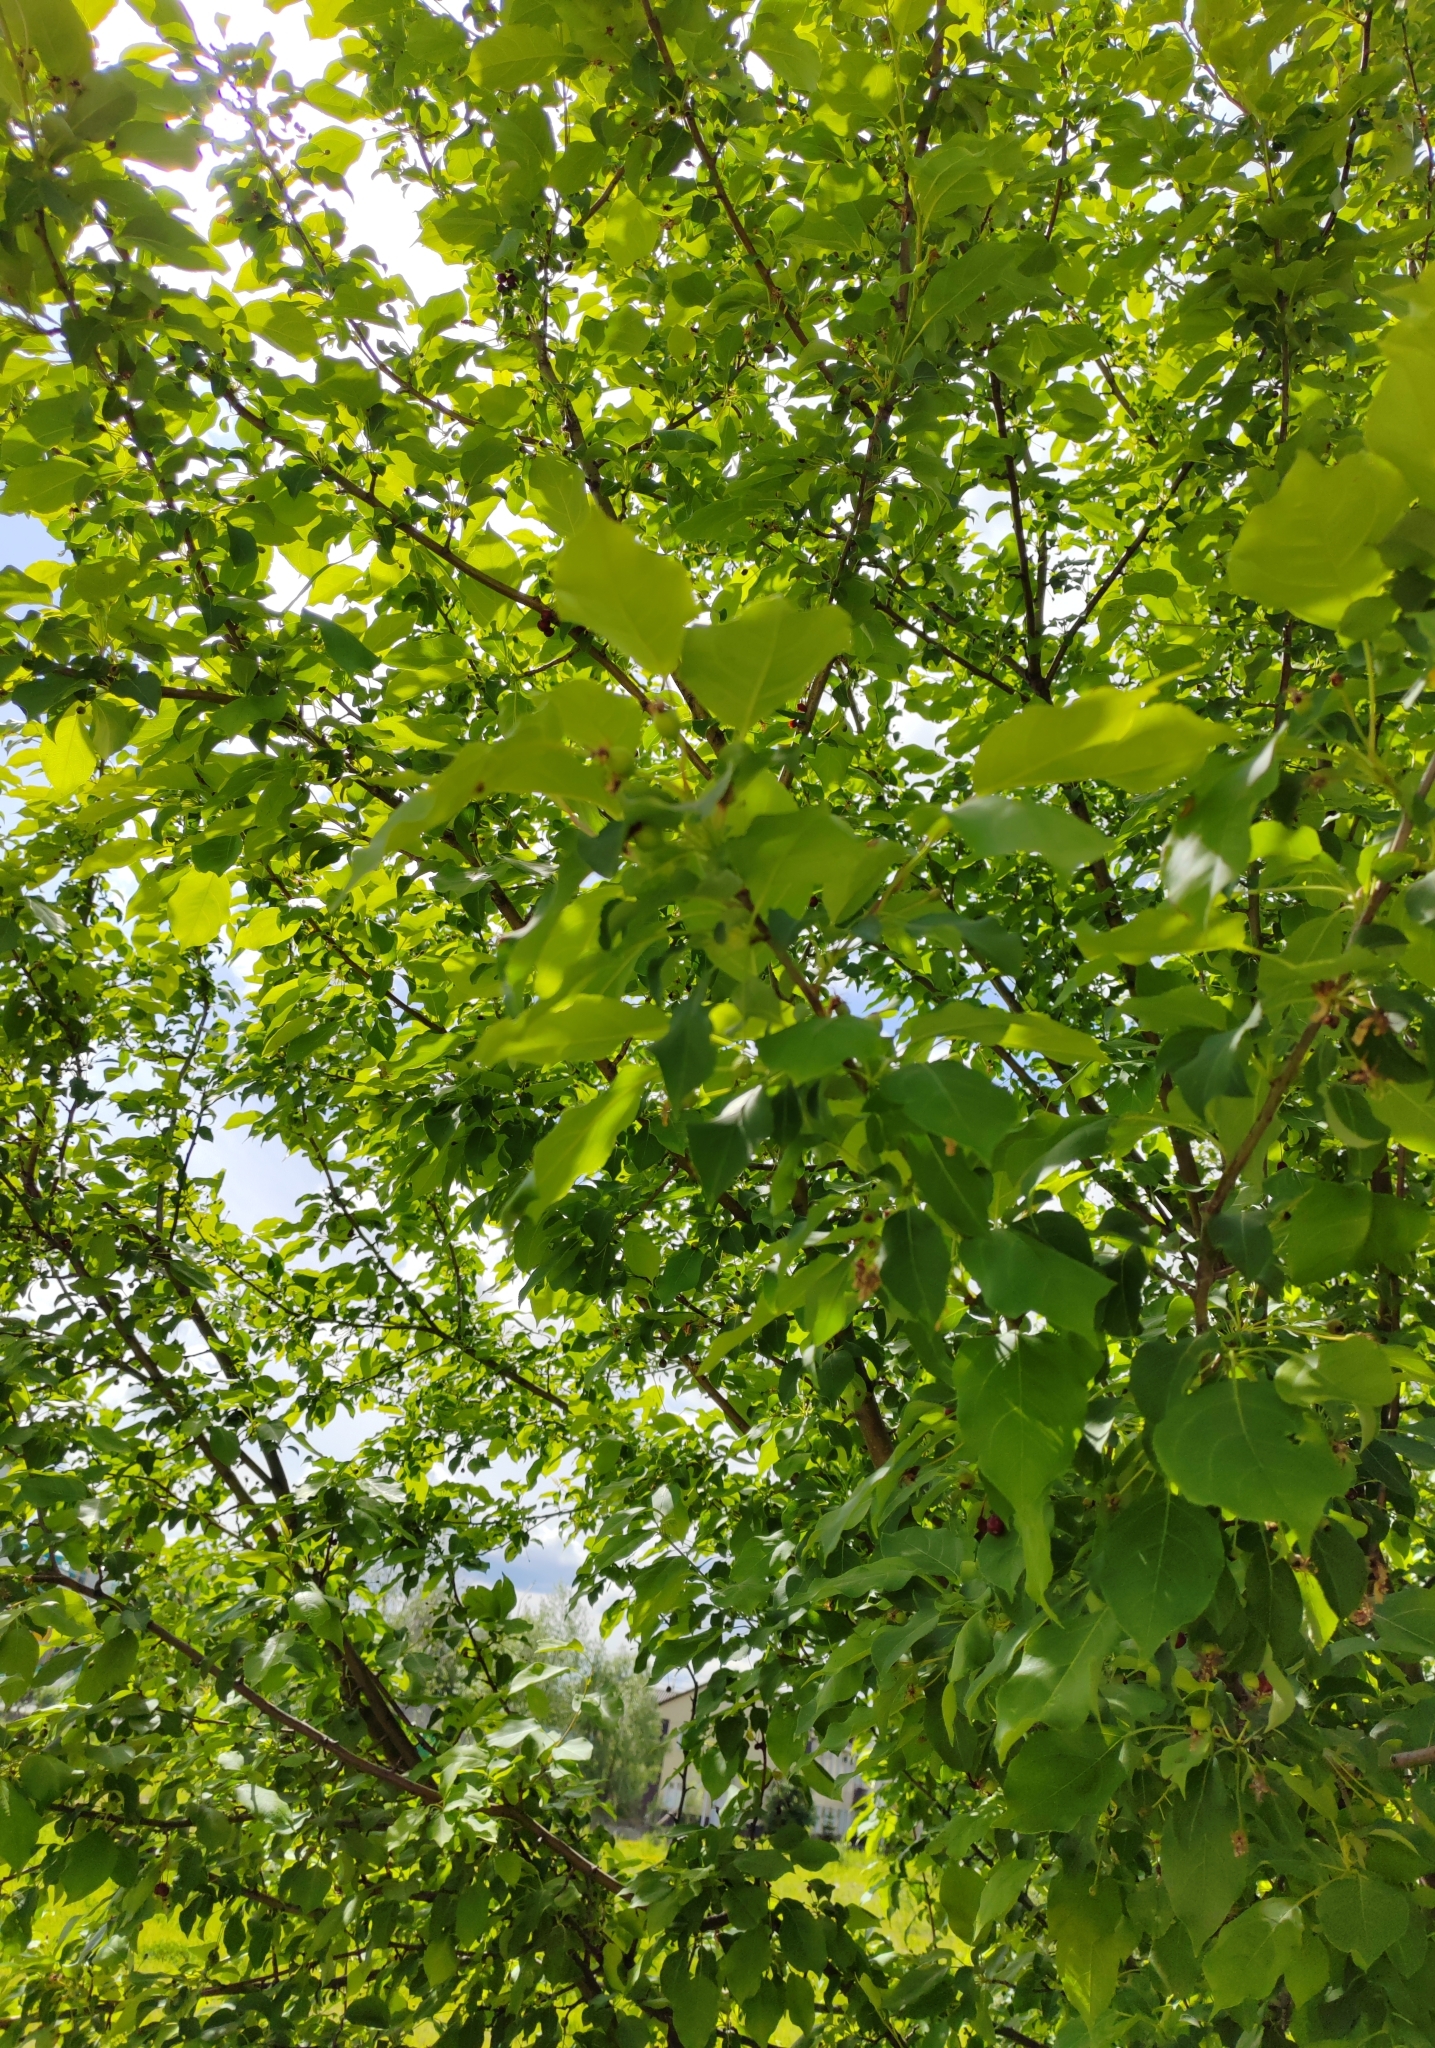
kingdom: Plantae
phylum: Tracheophyta
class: Magnoliopsida
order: Rosales
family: Rosaceae
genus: Malus
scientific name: Malus baccata
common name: Siberian crab
